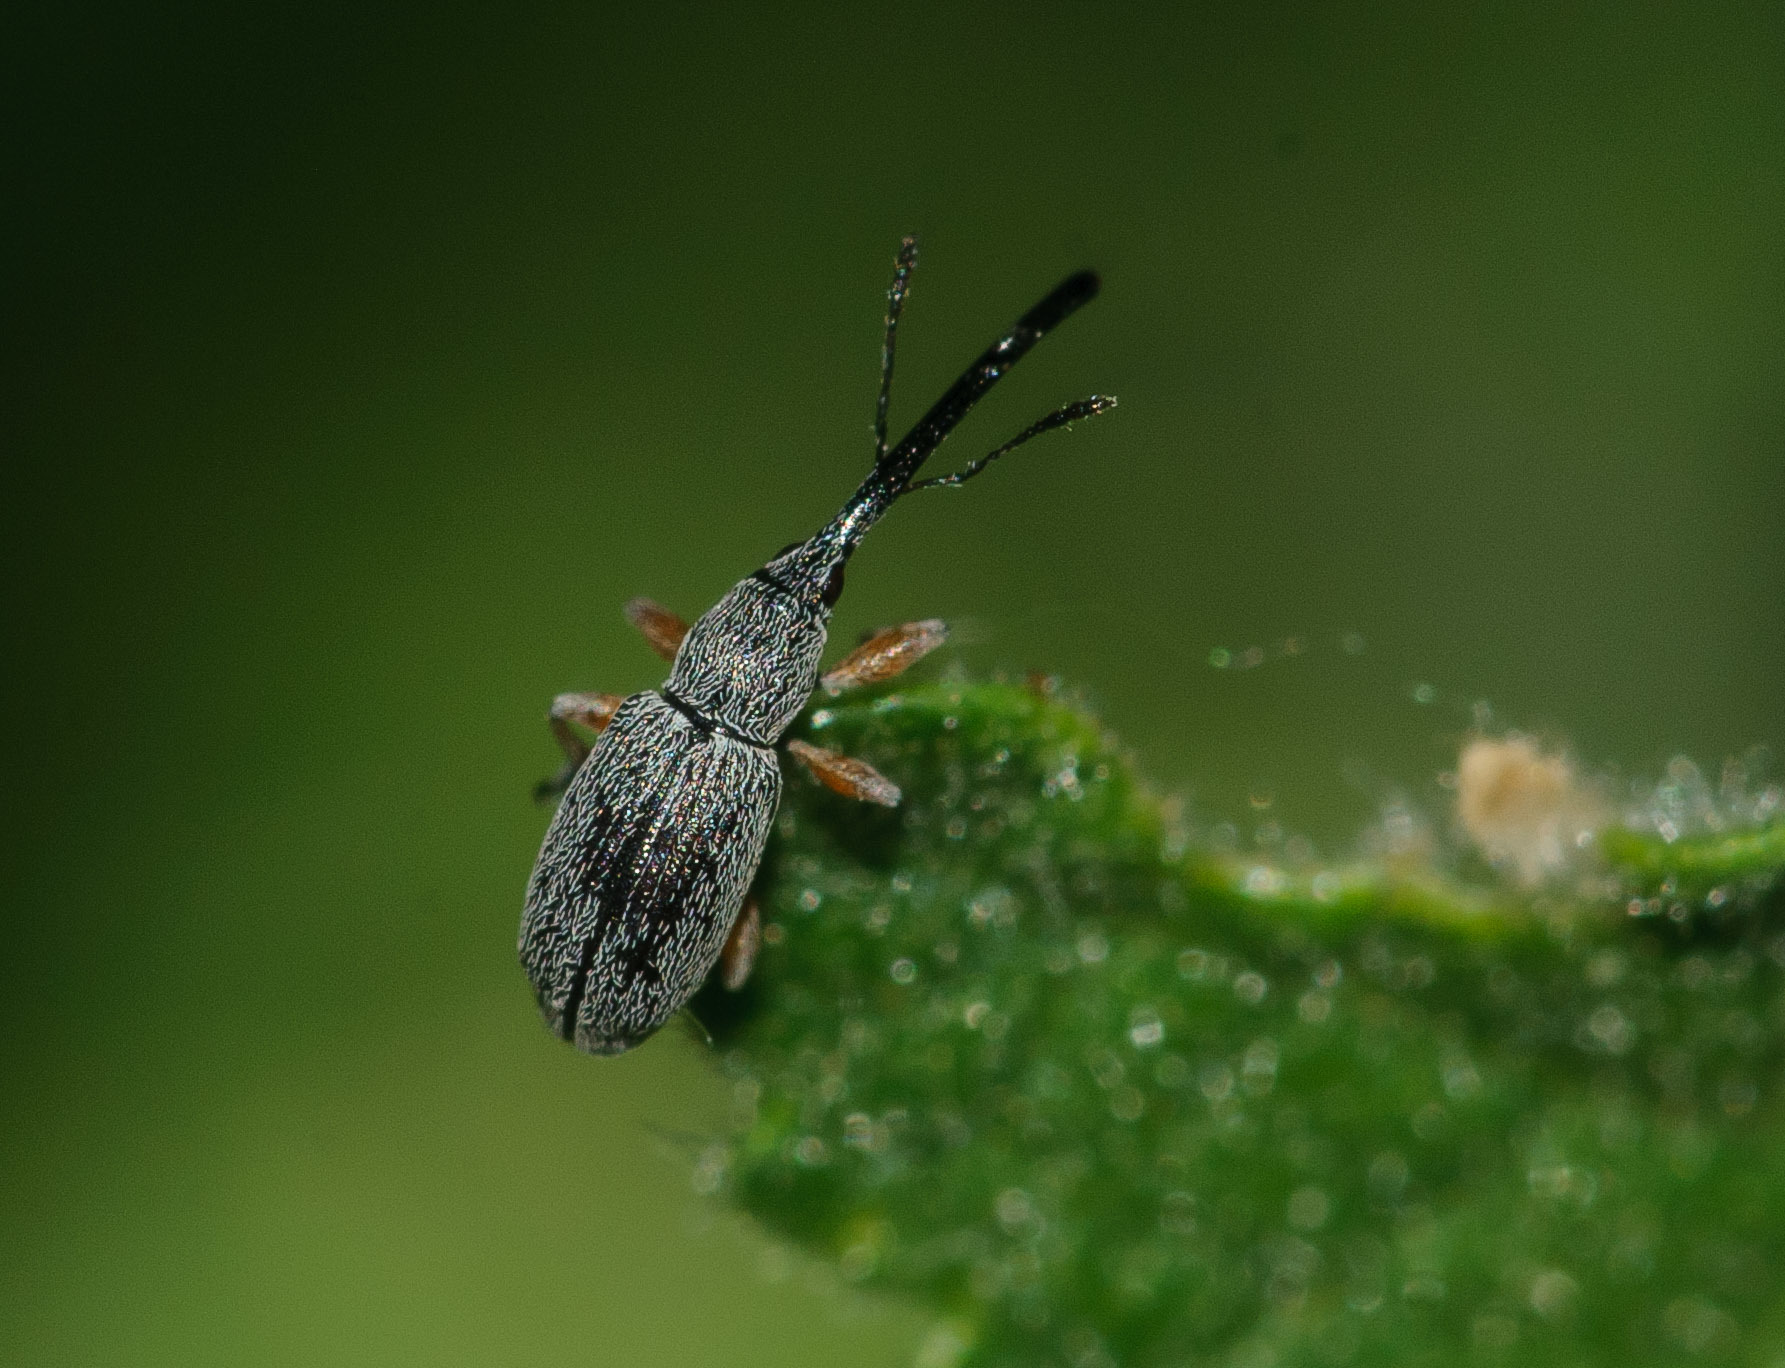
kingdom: Animalia
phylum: Arthropoda
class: Insecta
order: Coleoptera
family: Brentidae
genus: Rhopalapion
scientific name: Rhopalapion longirostre
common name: Hollyhock weevil
